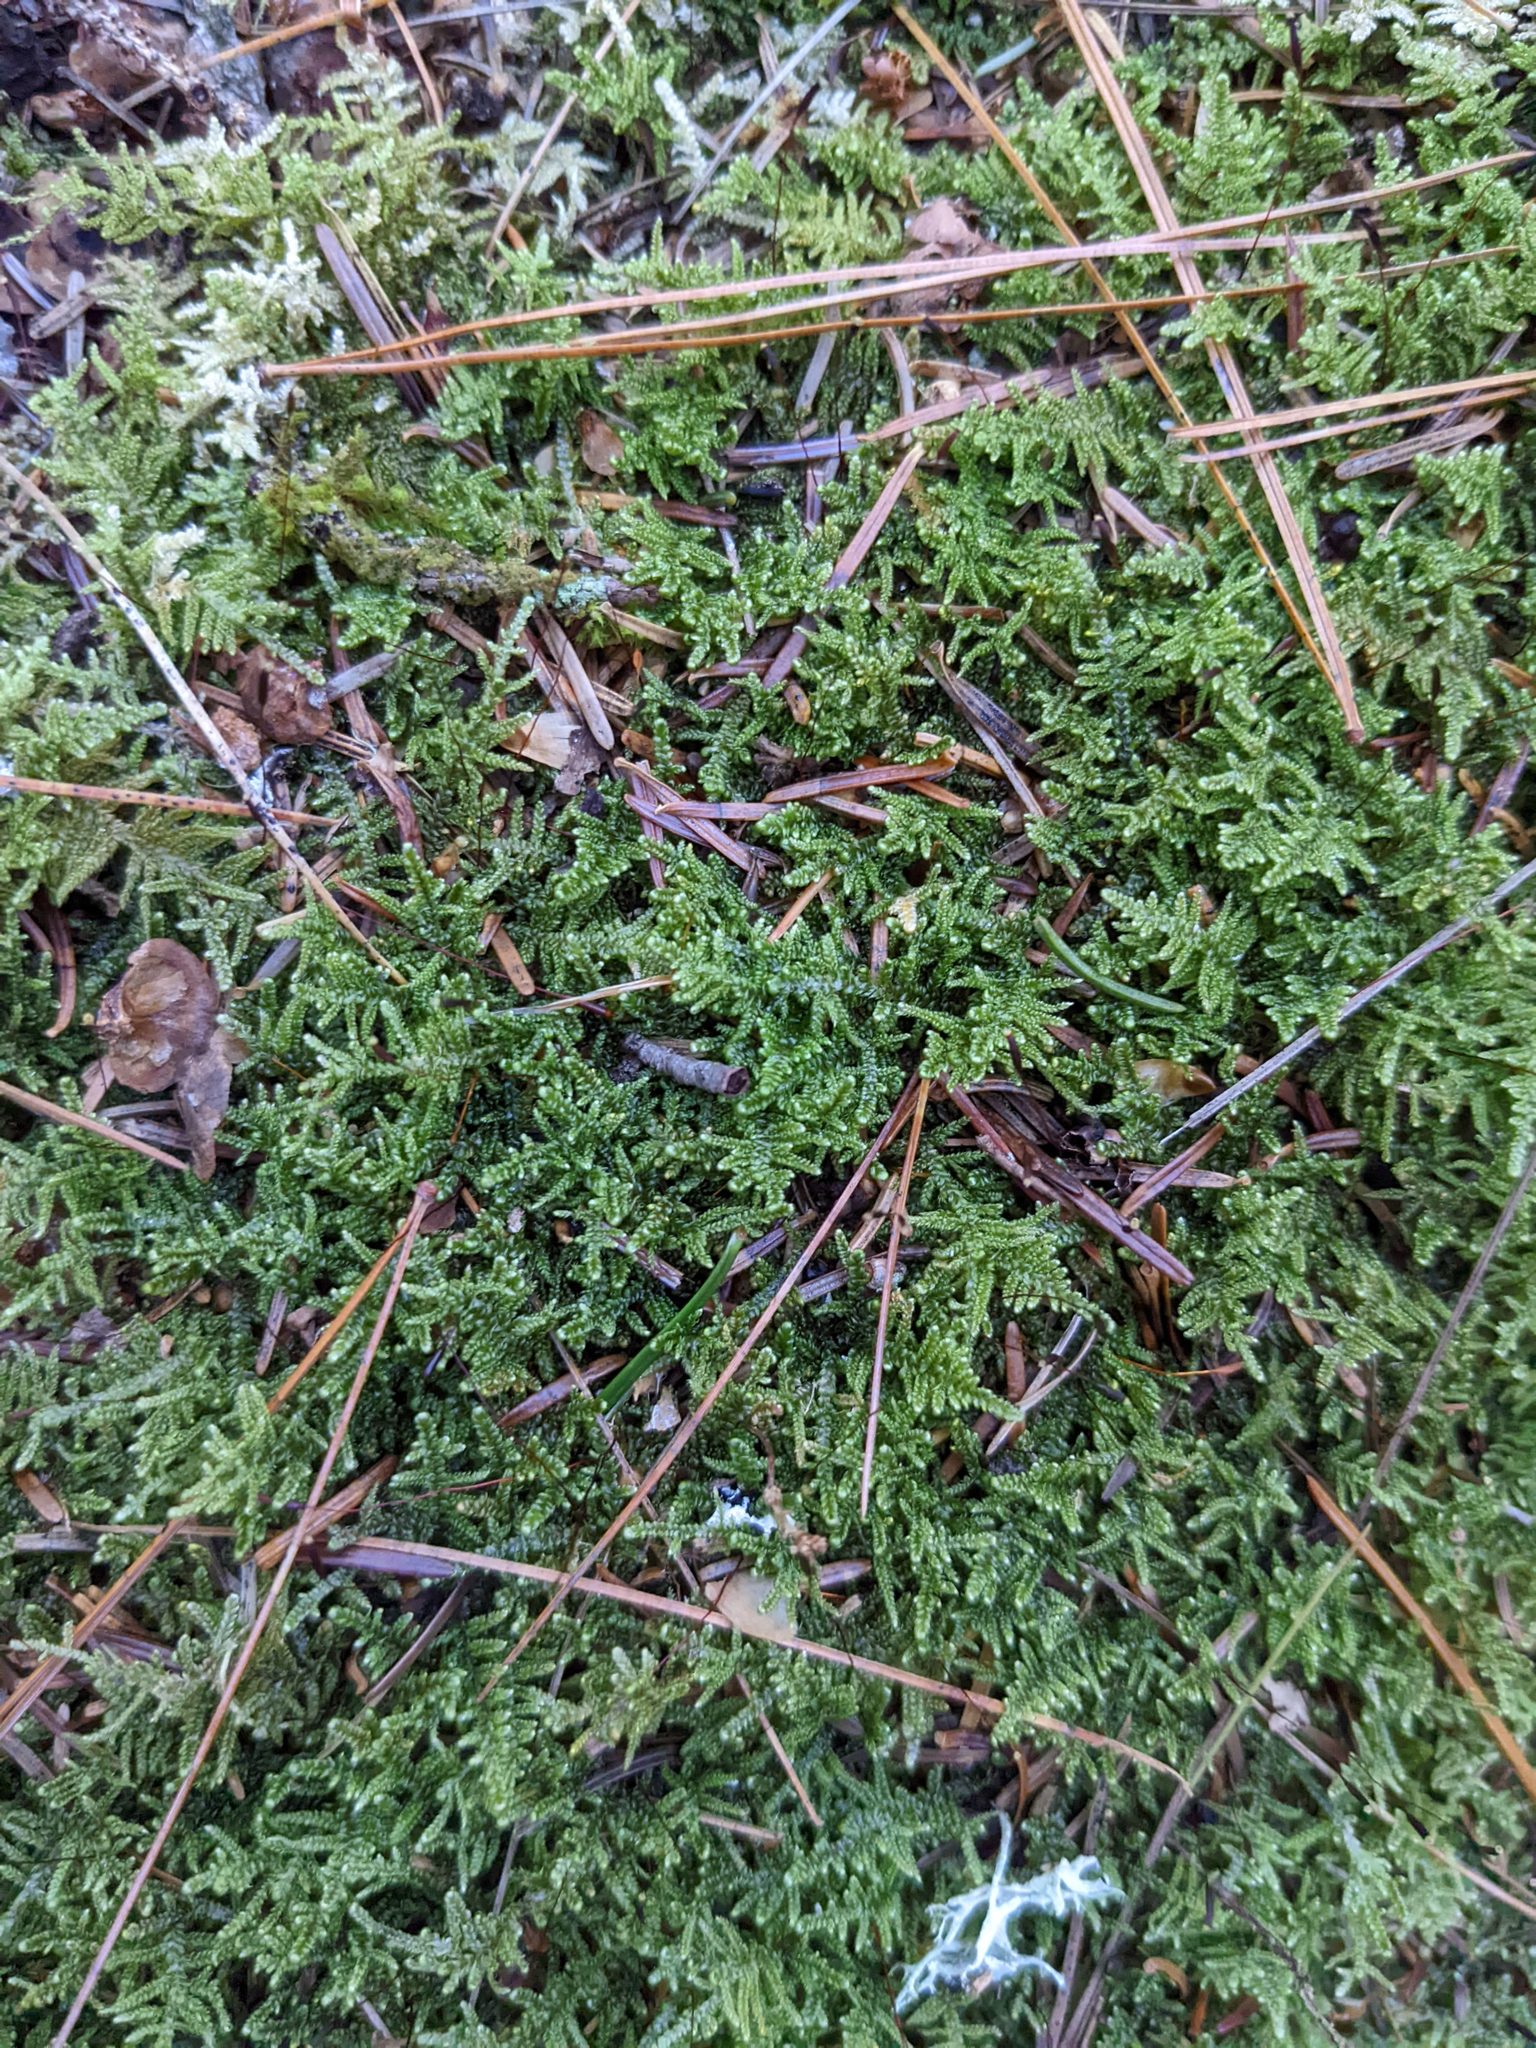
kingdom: Plantae
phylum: Bryophyta
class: Bryopsida
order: Hypnales
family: Callicladiaceae
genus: Callicladium
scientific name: Callicladium imponens
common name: Brocade moss
